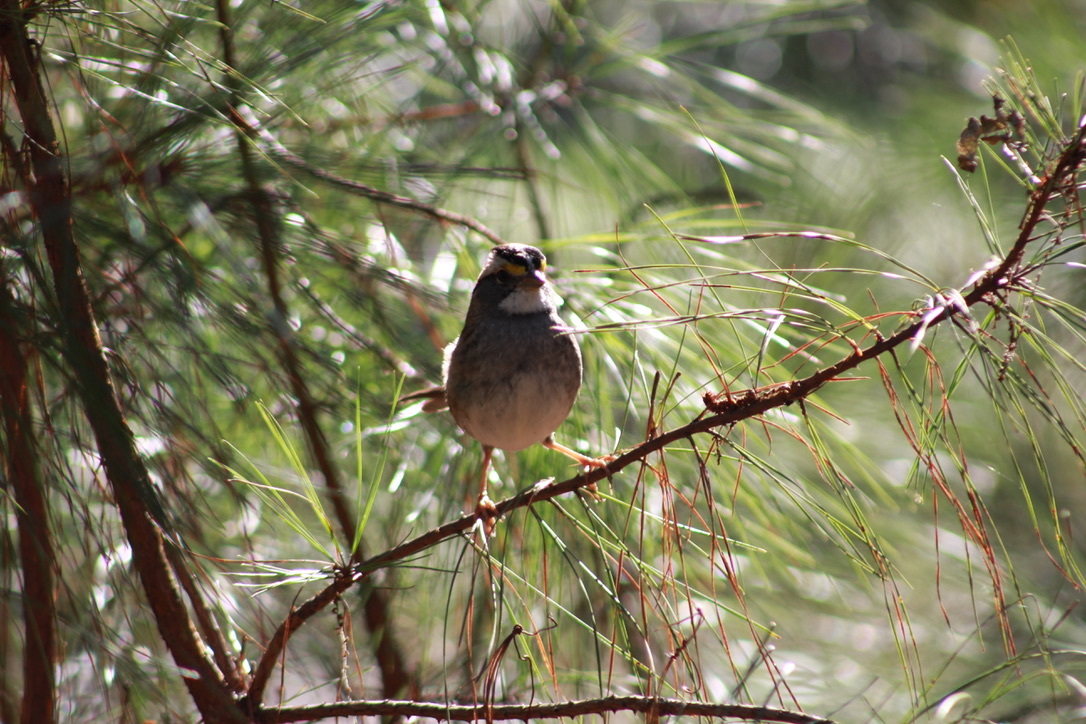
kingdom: Animalia
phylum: Chordata
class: Aves
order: Passeriformes
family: Passerellidae
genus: Zonotrichia
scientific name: Zonotrichia albicollis
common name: White-throated sparrow
